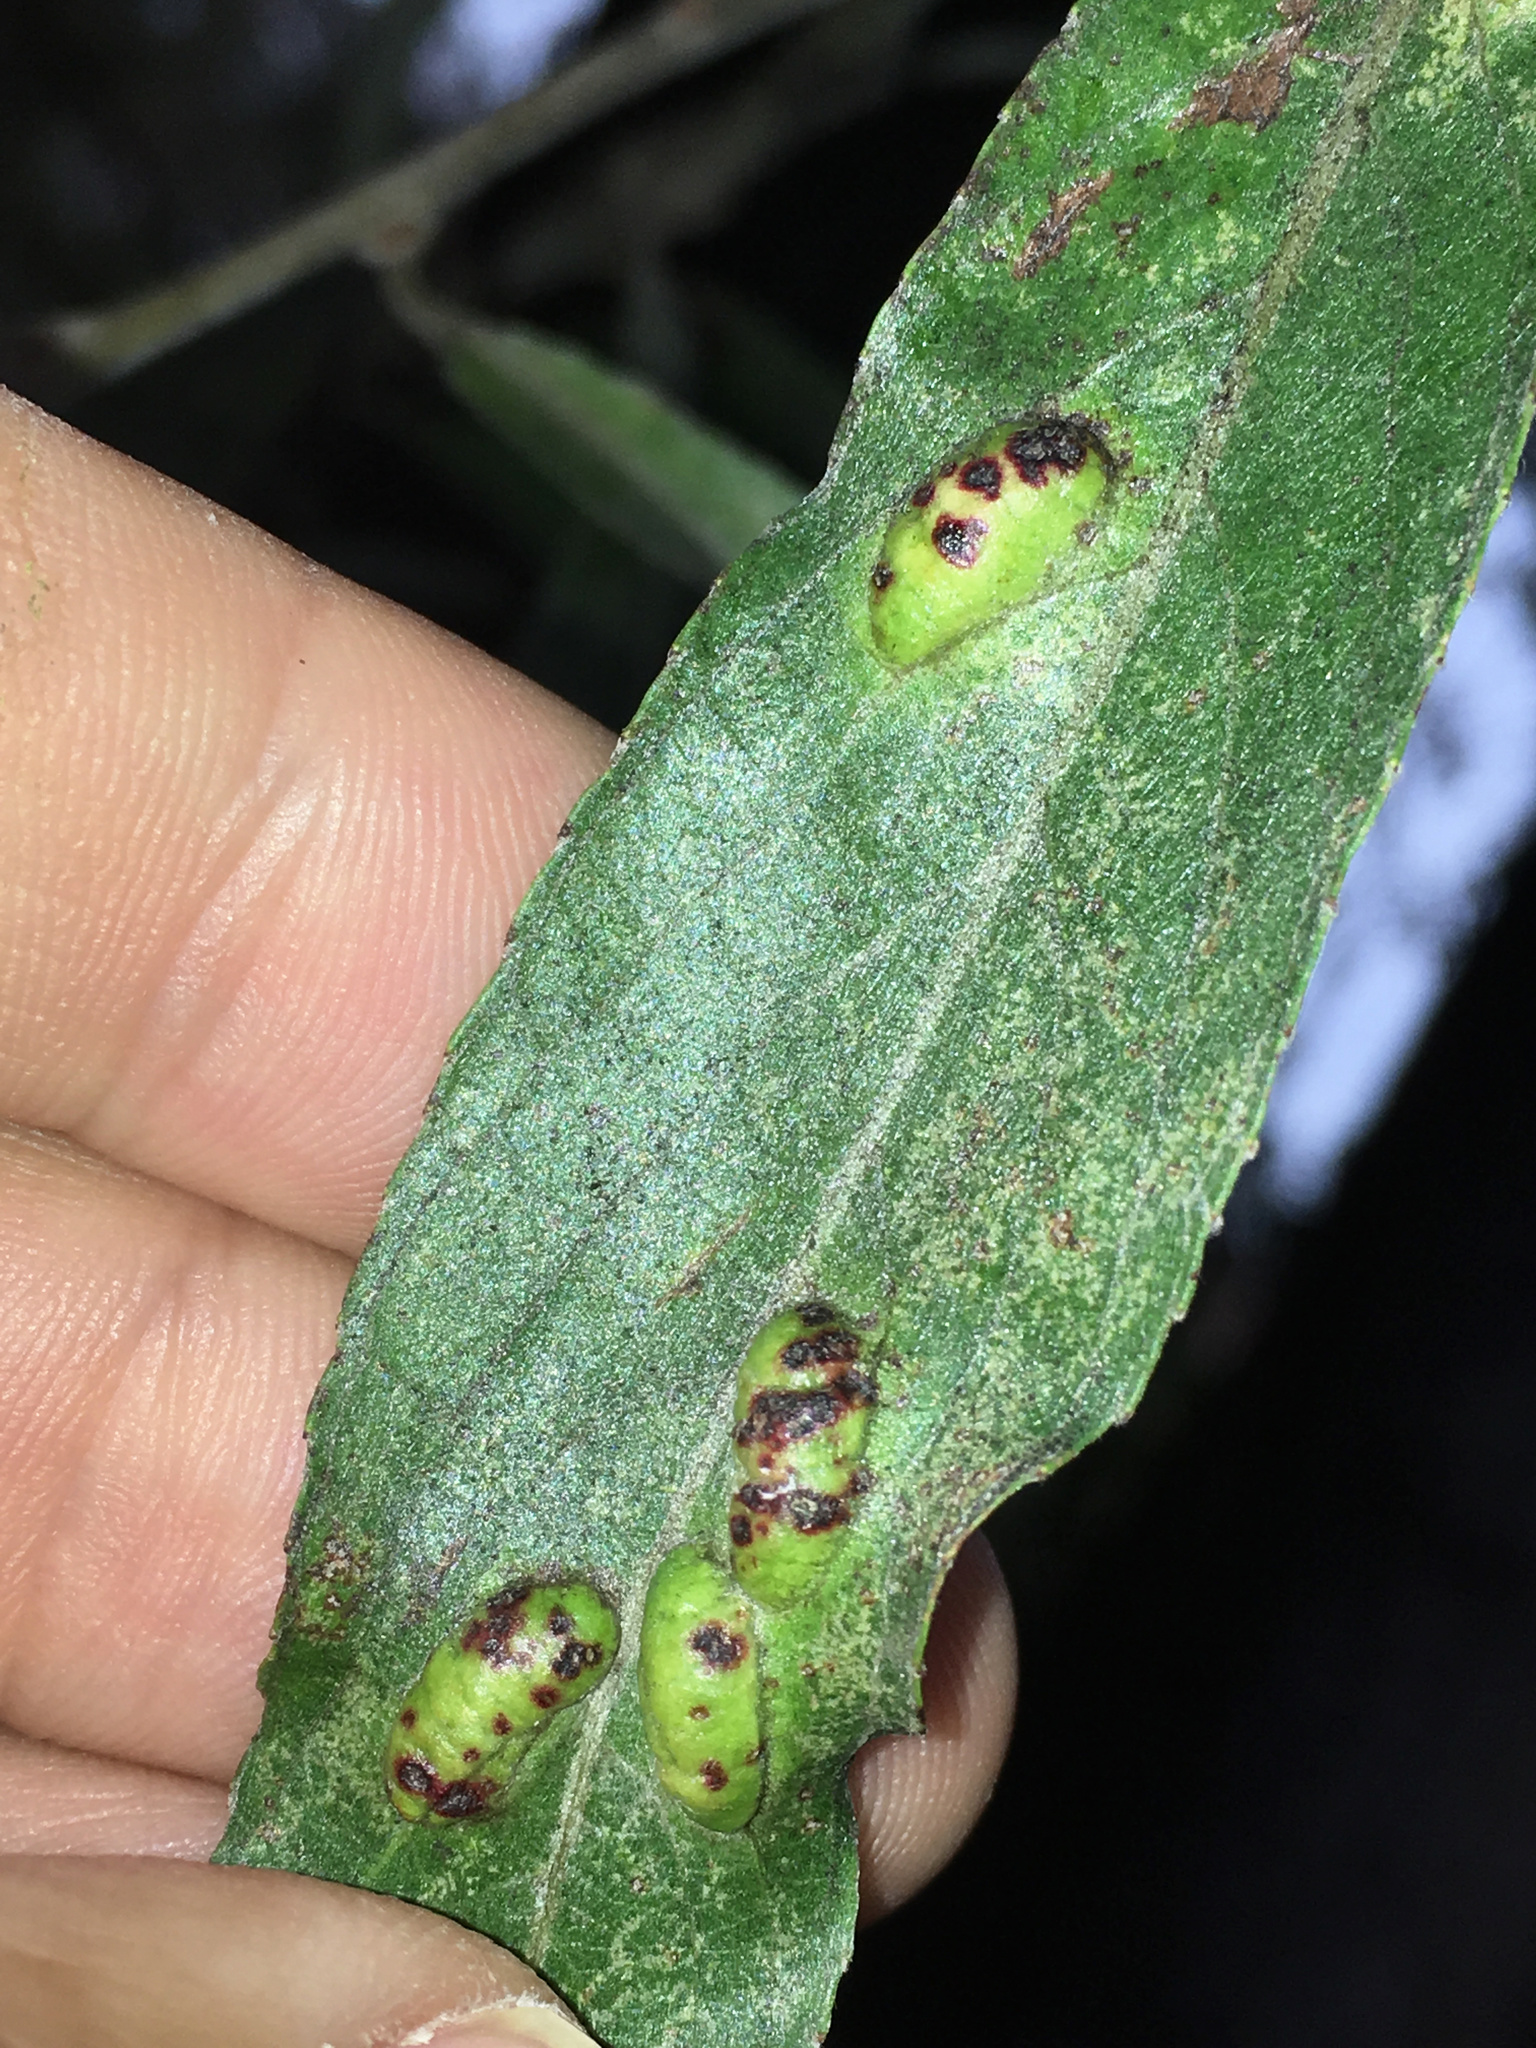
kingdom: Animalia
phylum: Arthropoda
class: Insecta
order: Hymenoptera
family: Tenthredinidae
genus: Pontania
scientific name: Pontania proxima
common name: Common sawfly
